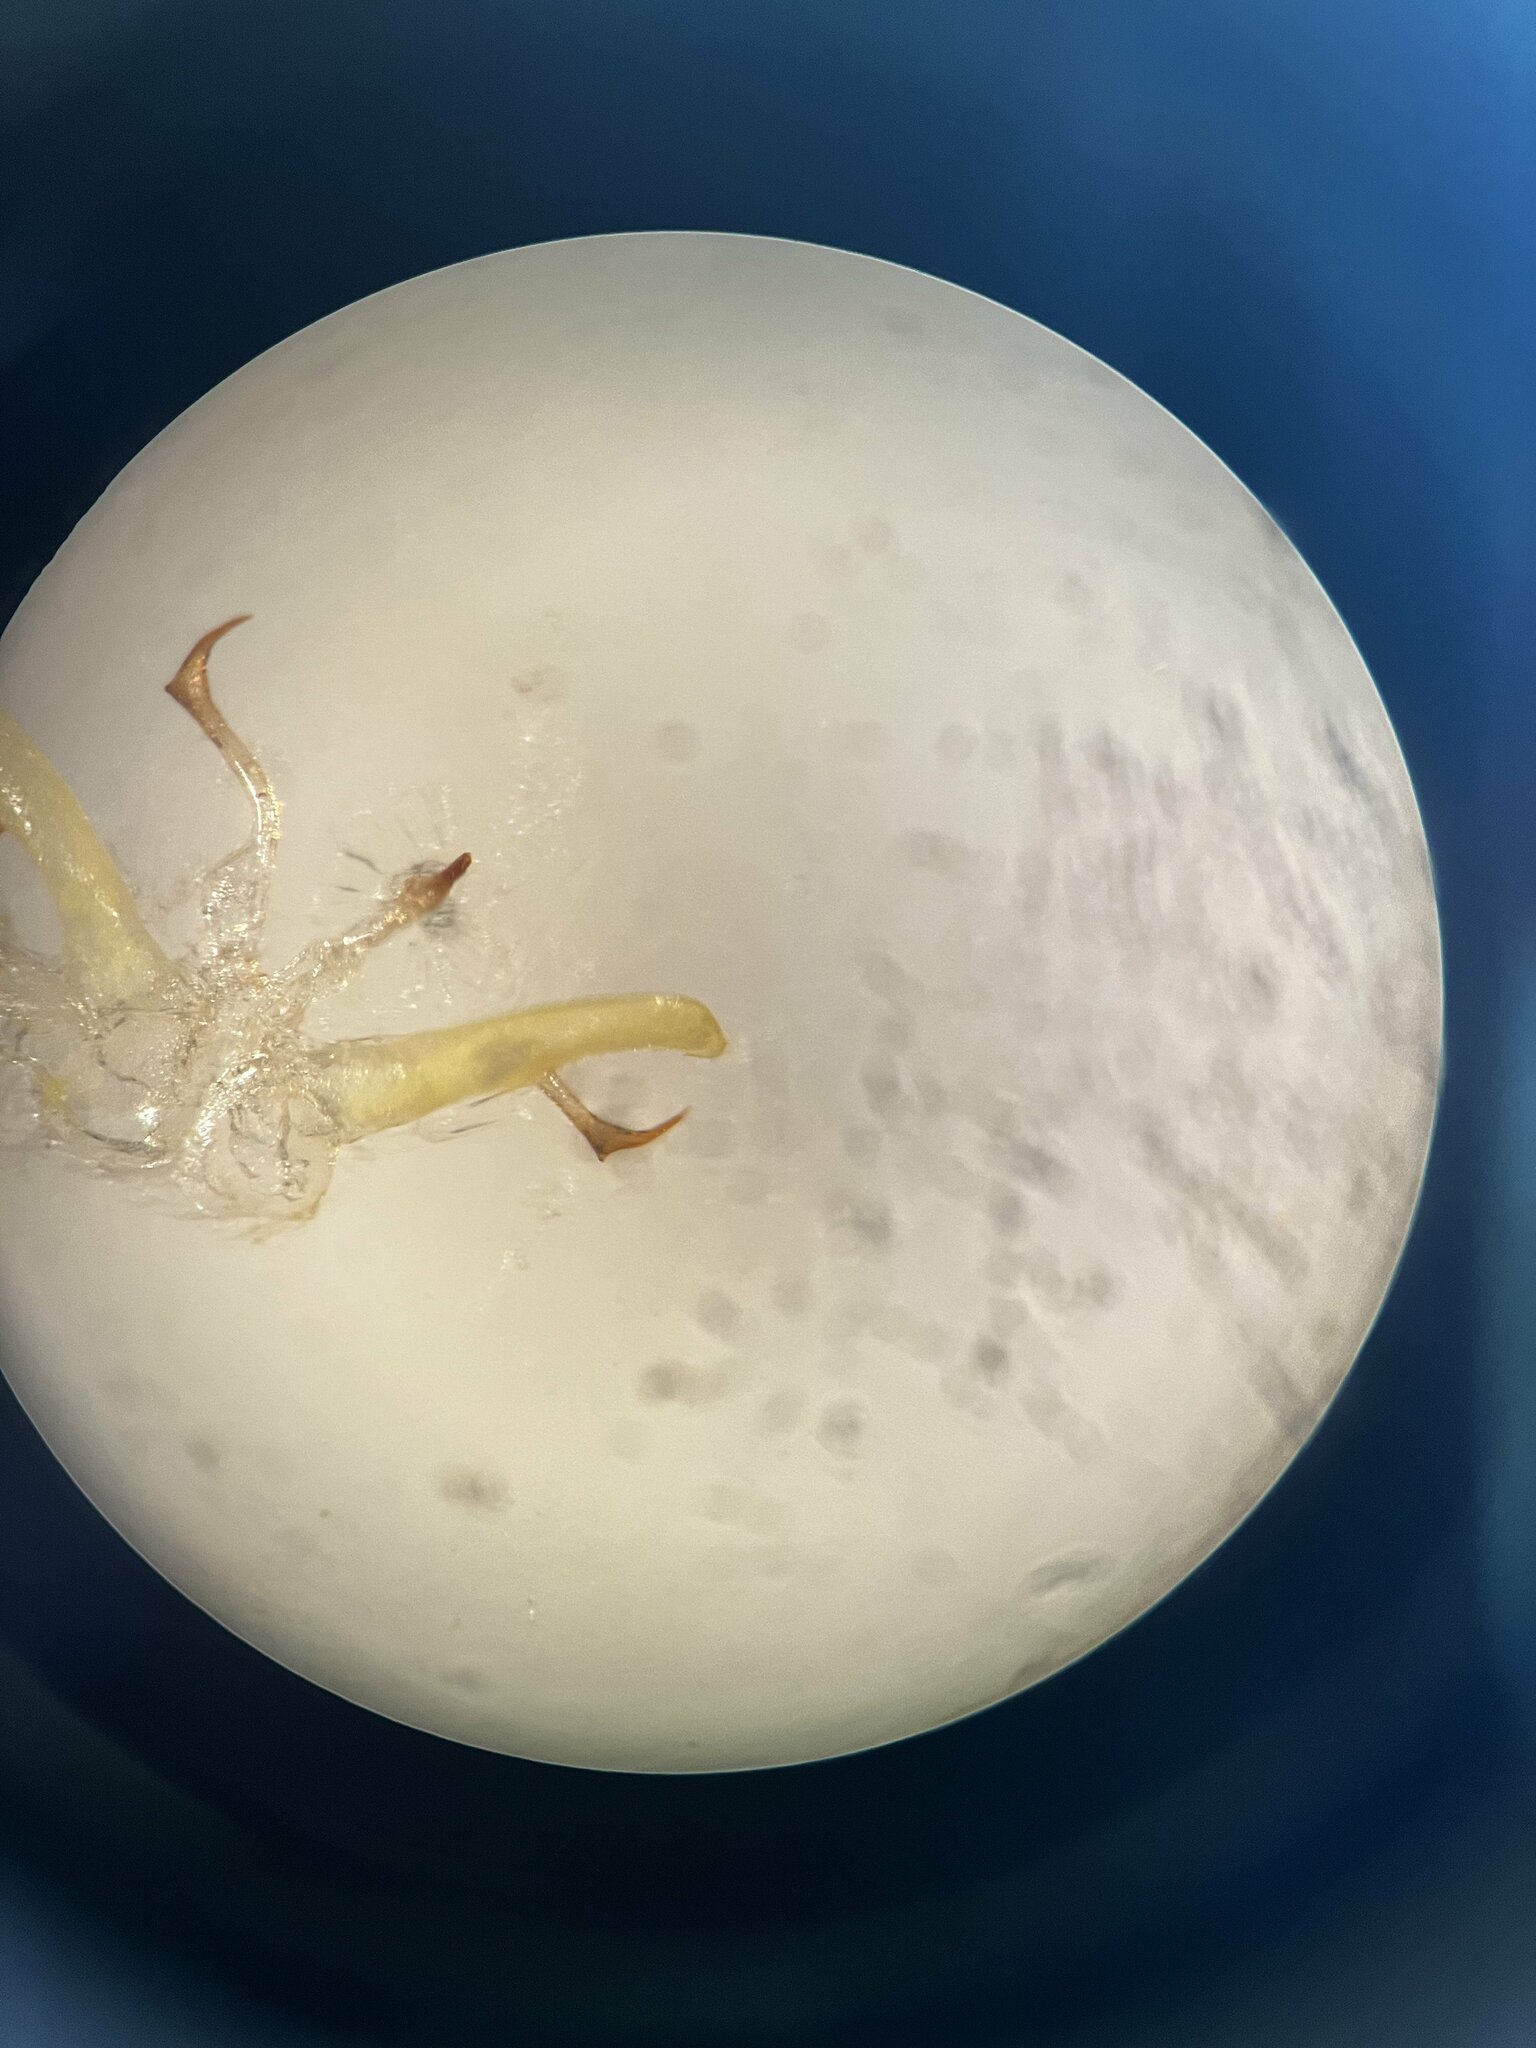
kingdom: Animalia
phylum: Arthropoda
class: Insecta
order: Hemiptera
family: Cicadellidae
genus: Fagocyba
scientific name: Fagocyba cruenta
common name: Leafhopper
